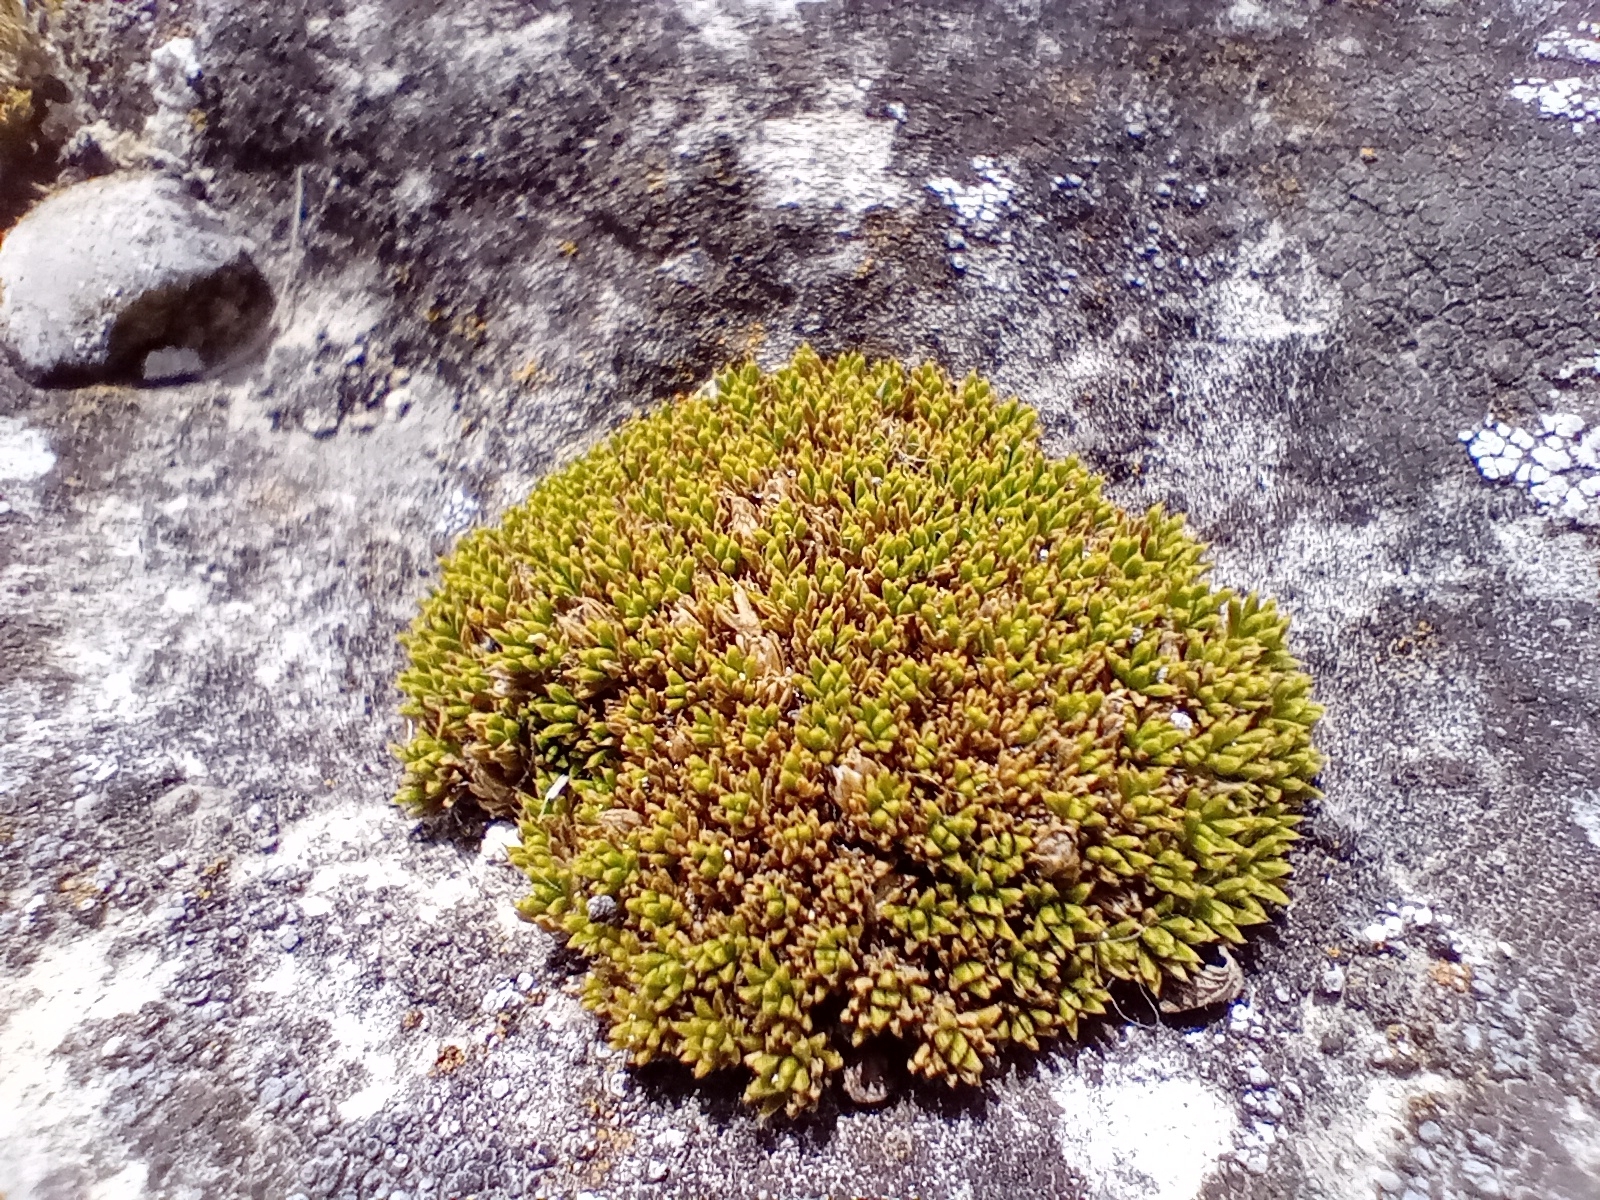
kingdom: Plantae
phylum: Tracheophyta
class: Magnoliopsida
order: Caryophyllales
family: Caryophyllaceae
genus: Colobanthus
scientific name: Colobanthus brevisepalus
